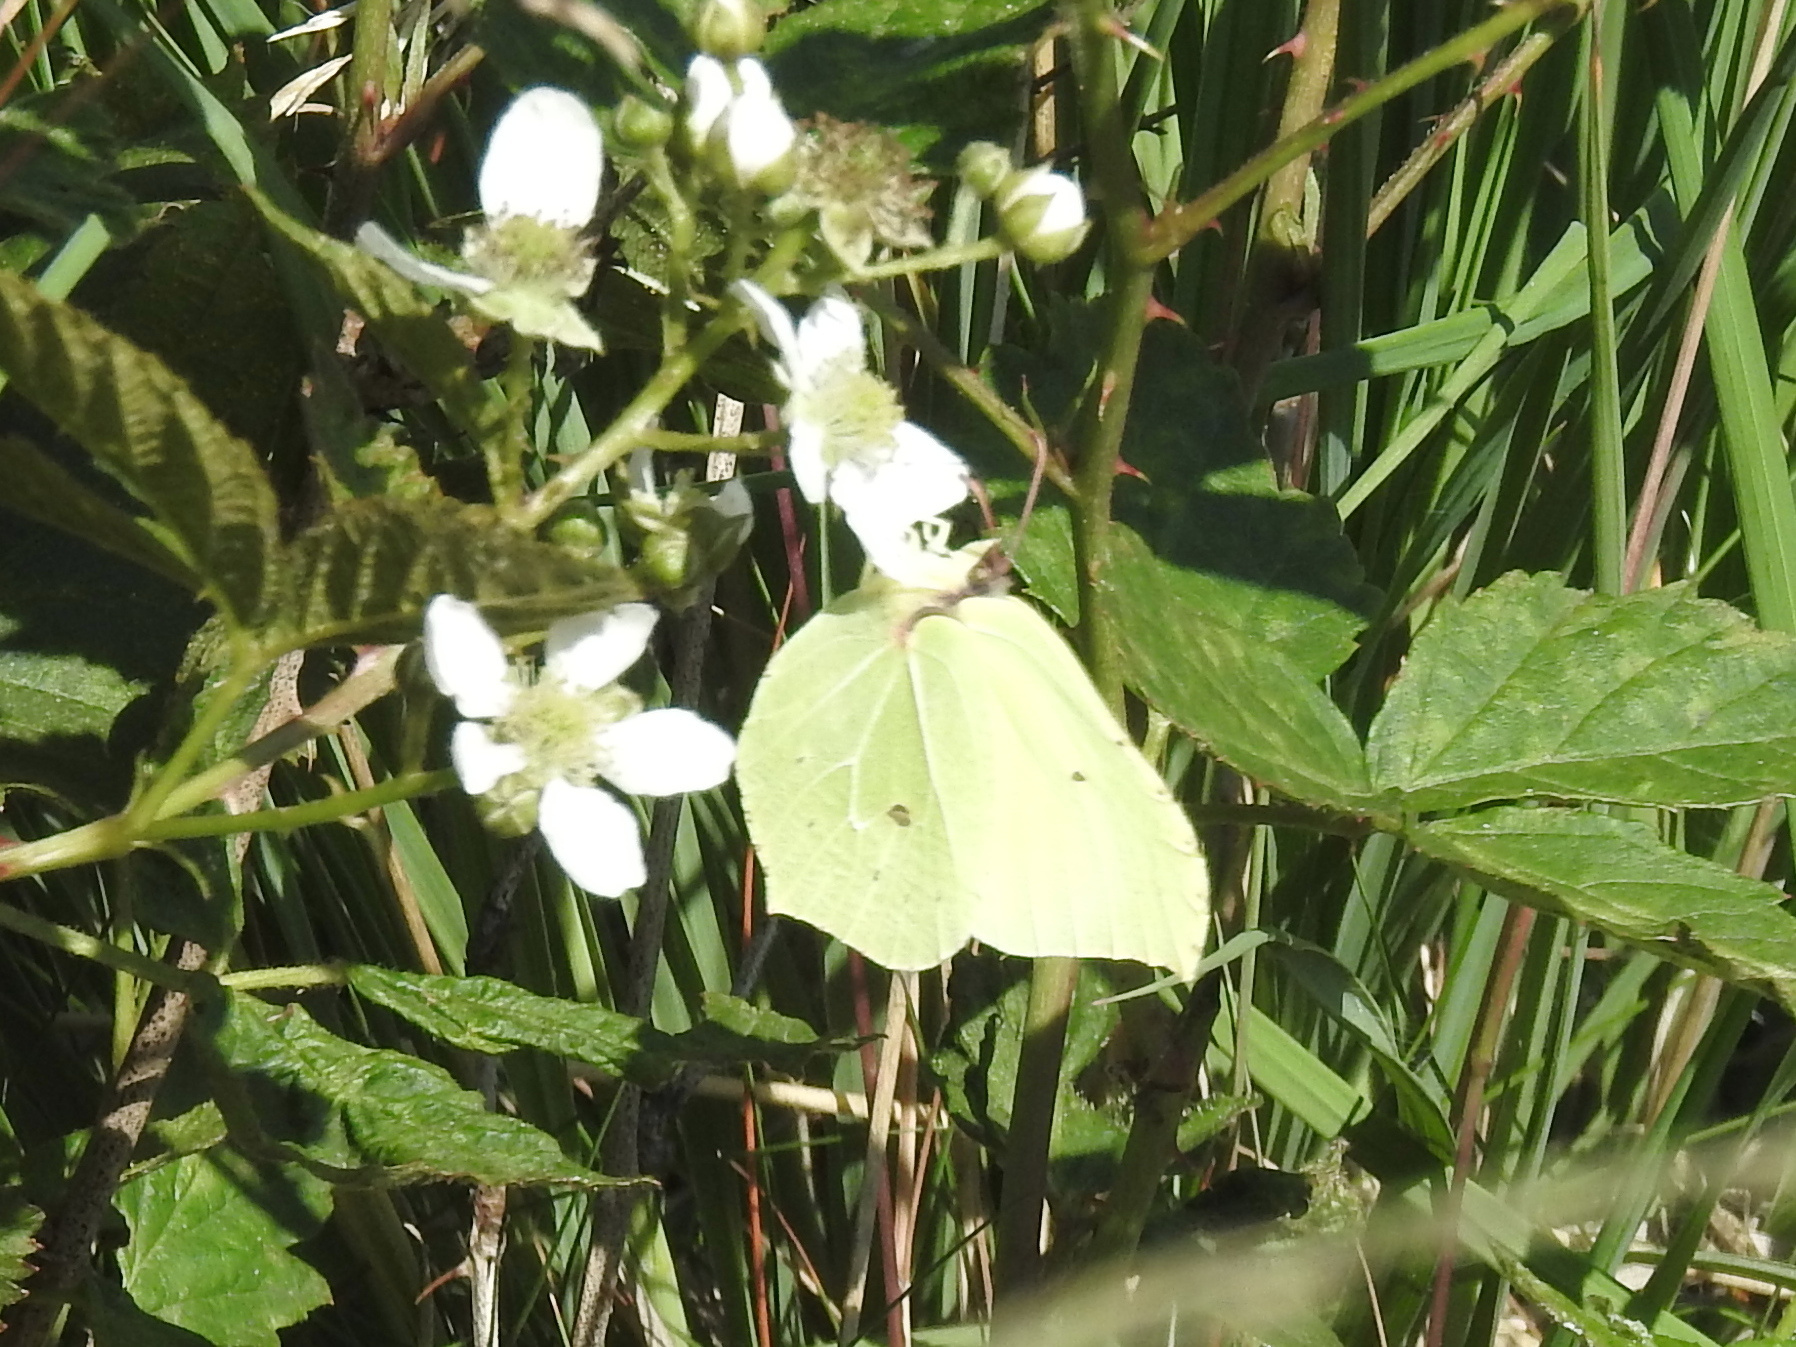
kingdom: Animalia
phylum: Arthropoda
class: Insecta
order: Lepidoptera
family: Pieridae
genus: Gonepteryx
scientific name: Gonepteryx rhamni
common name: Brimstone
